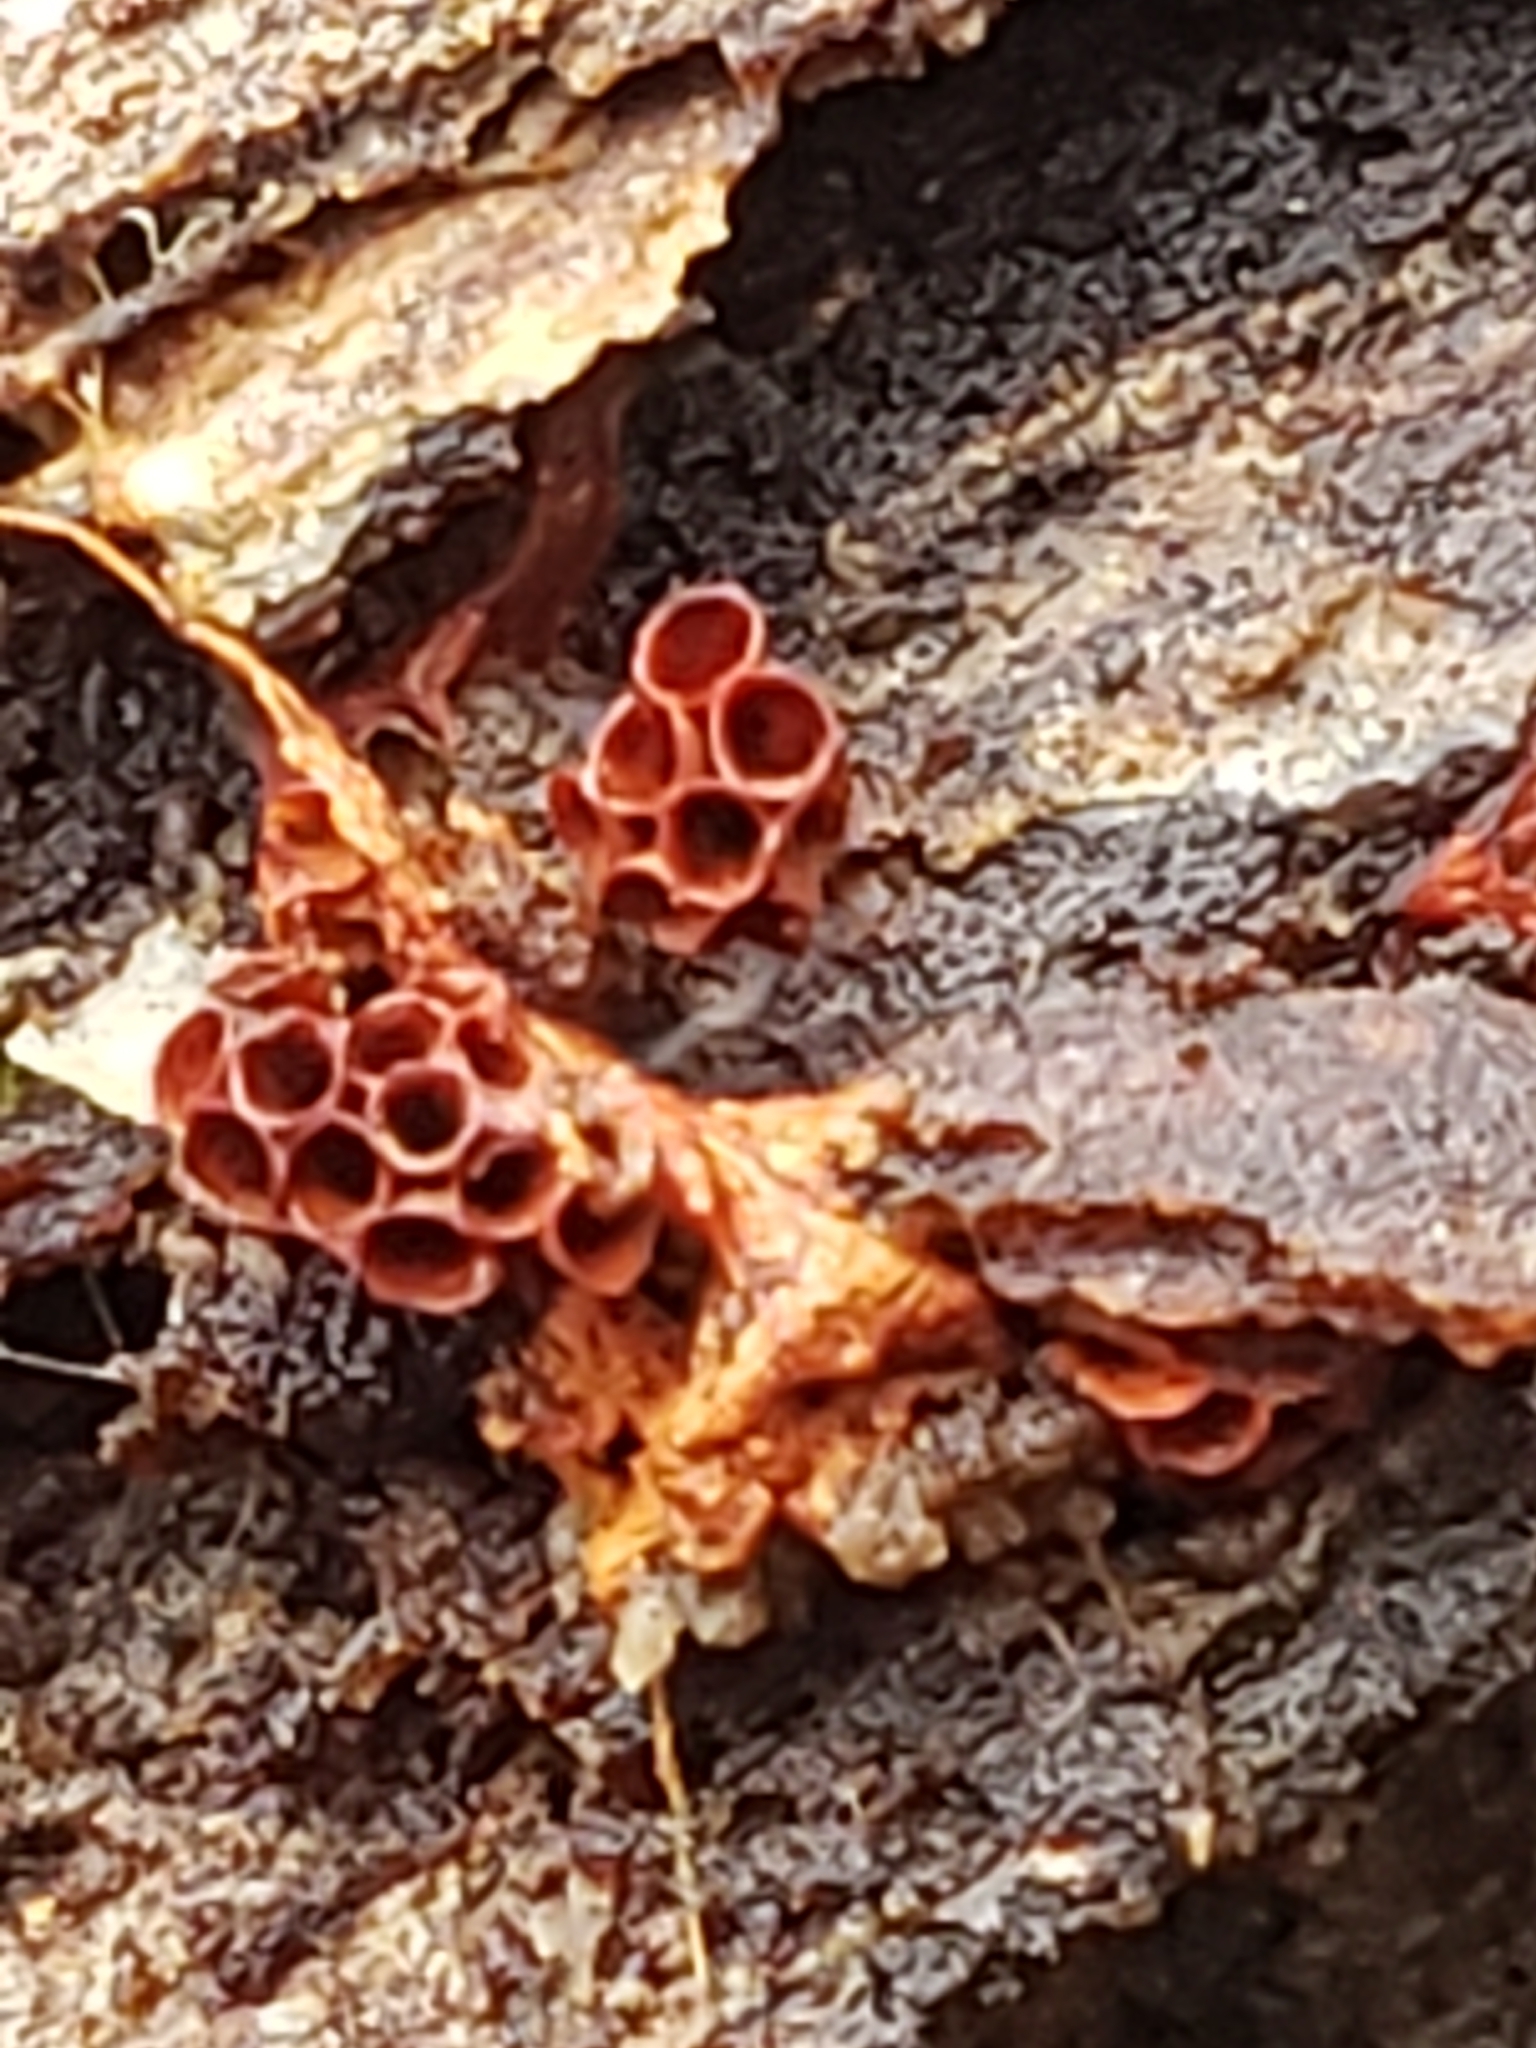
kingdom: Protozoa
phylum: Mycetozoa
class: Myxomycetes
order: Trichiales
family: Trichiaceae
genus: Metatrichia
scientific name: Metatrichia vesparia
